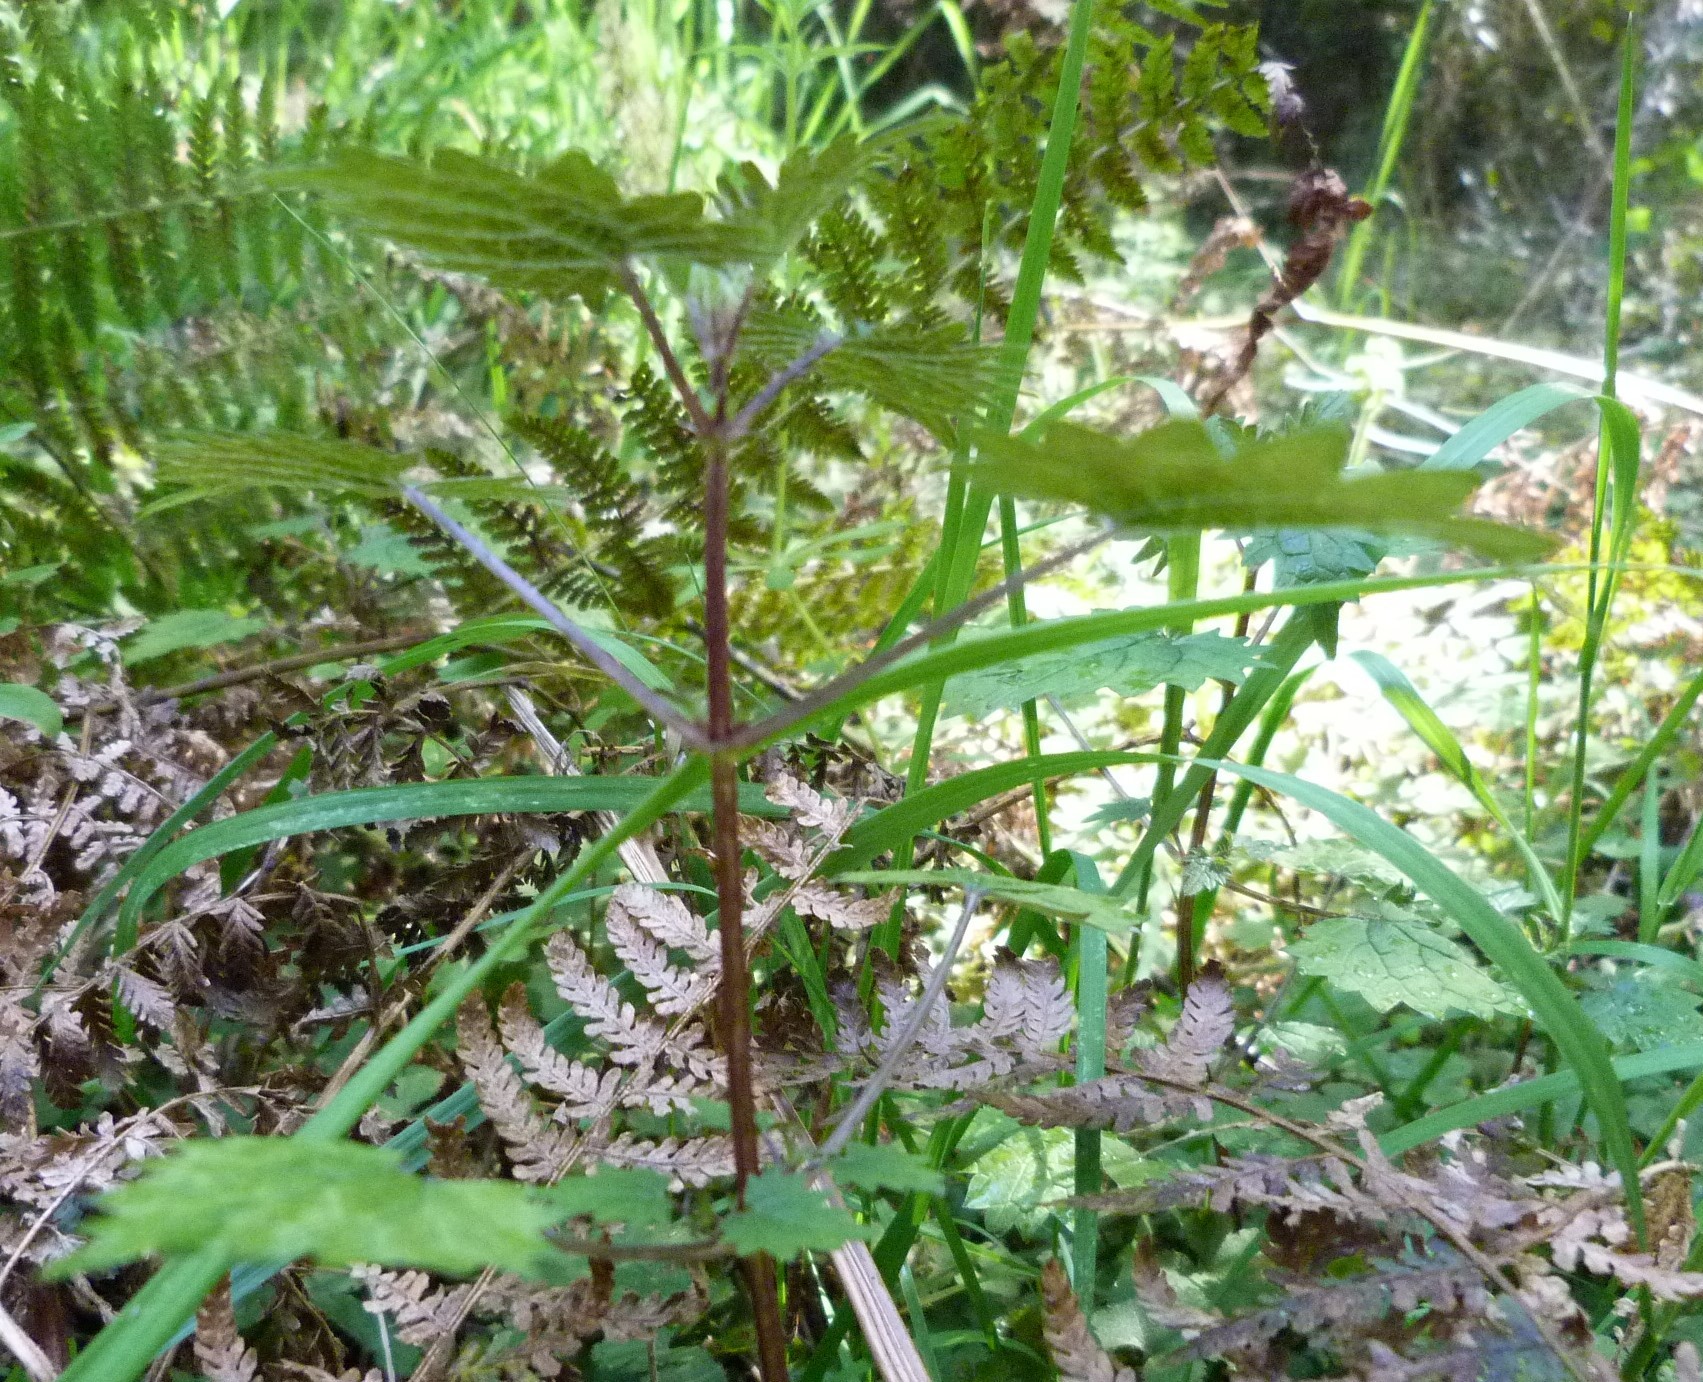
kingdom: Plantae
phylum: Tracheophyta
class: Magnoliopsida
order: Rosales
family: Urticaceae
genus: Urtica
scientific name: Urtica sykesii
